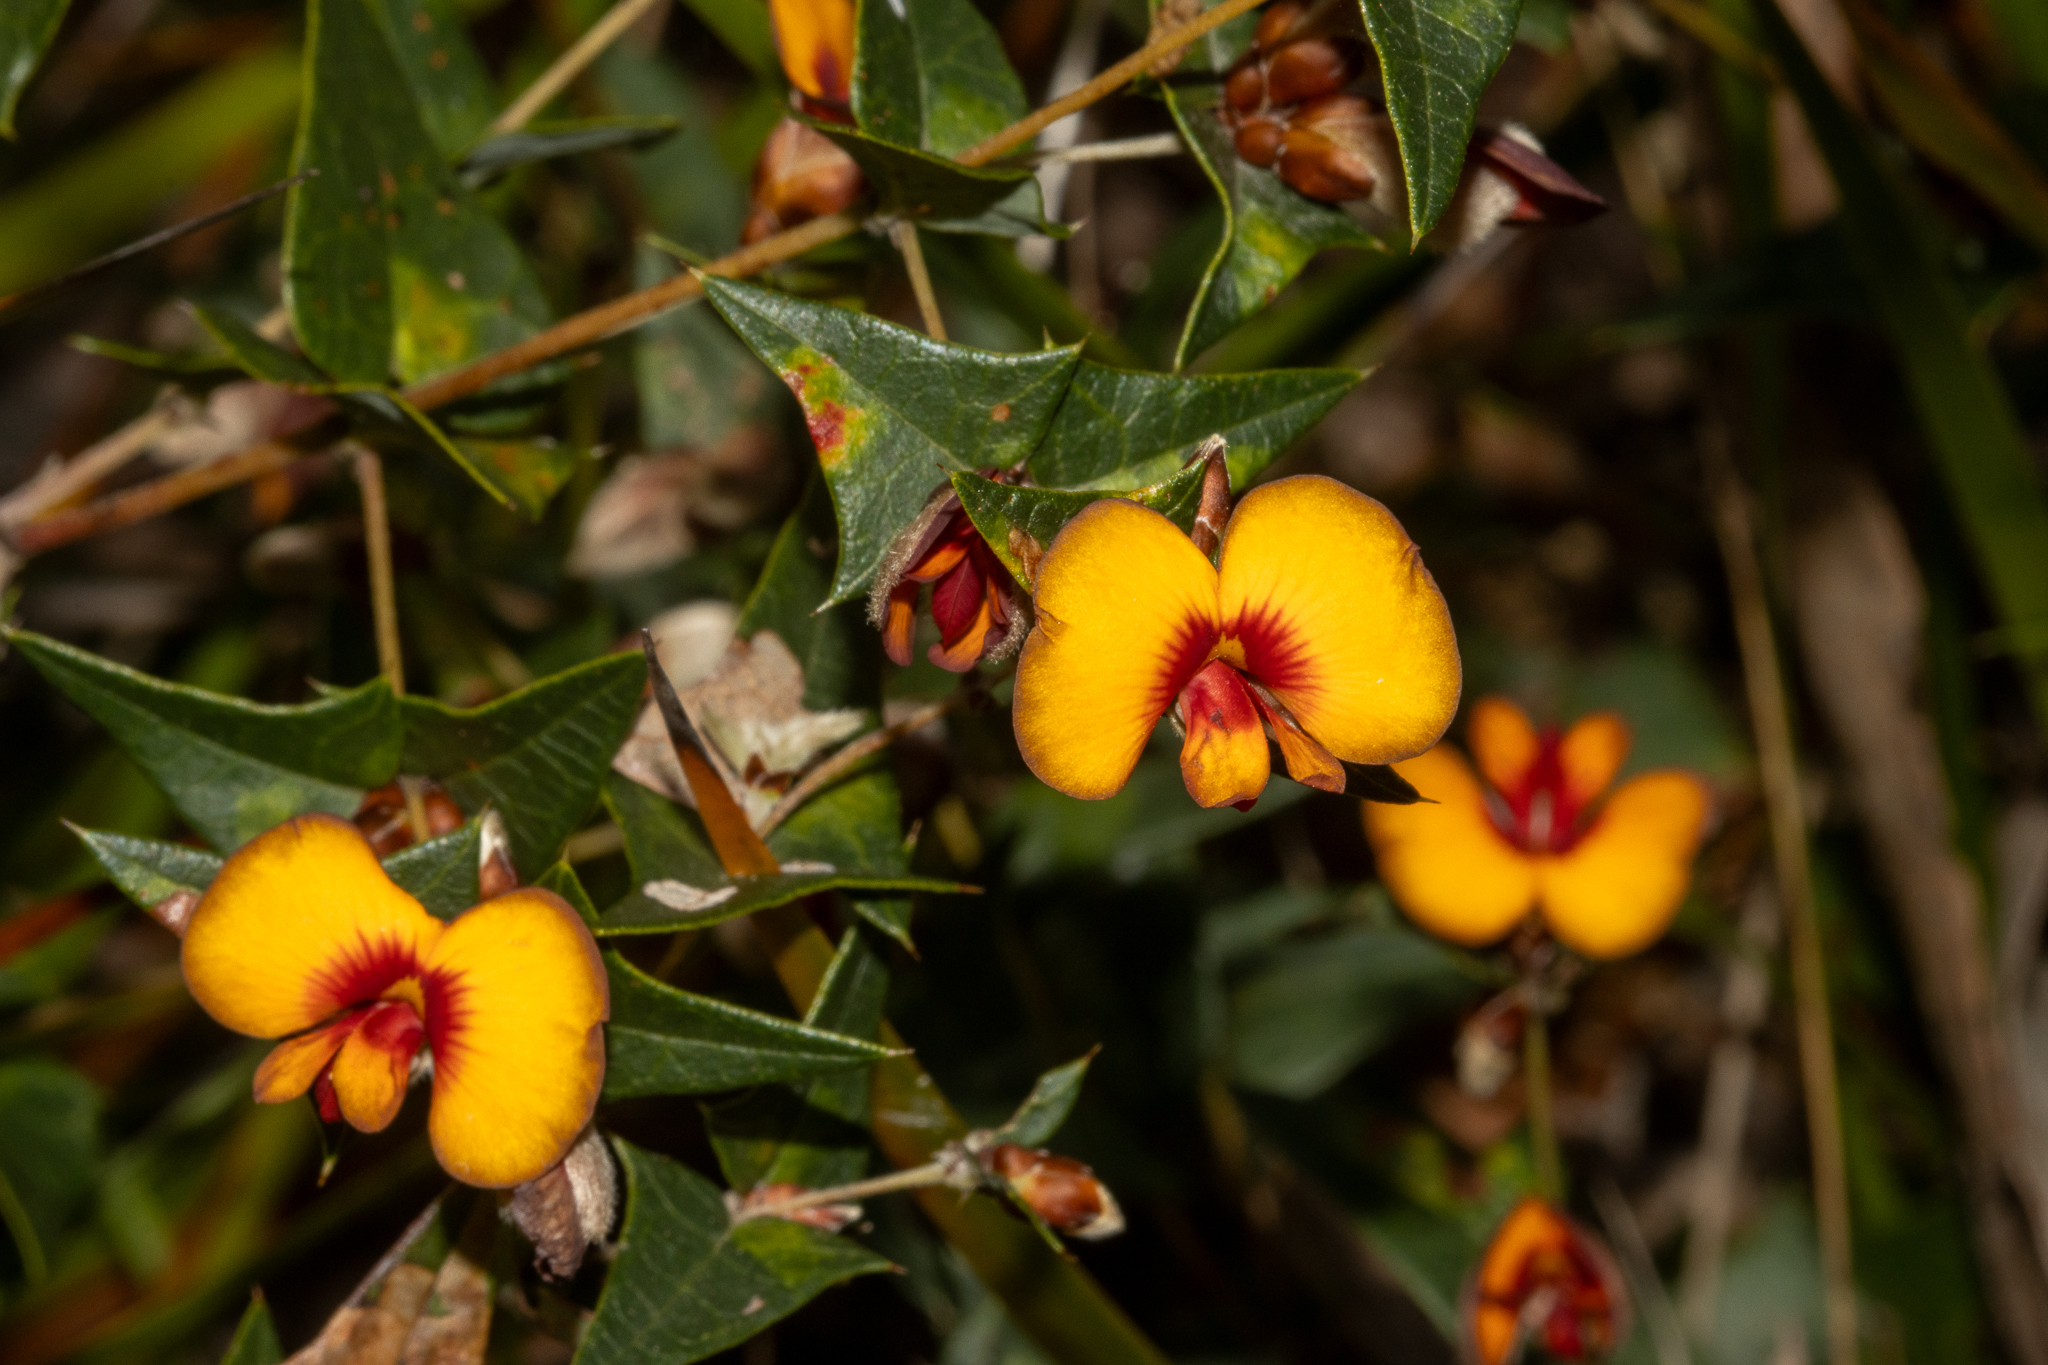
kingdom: Plantae
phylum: Tracheophyta
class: Magnoliopsida
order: Fabales
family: Fabaceae
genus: Platylobium
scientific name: Platylobium obtusangulum
